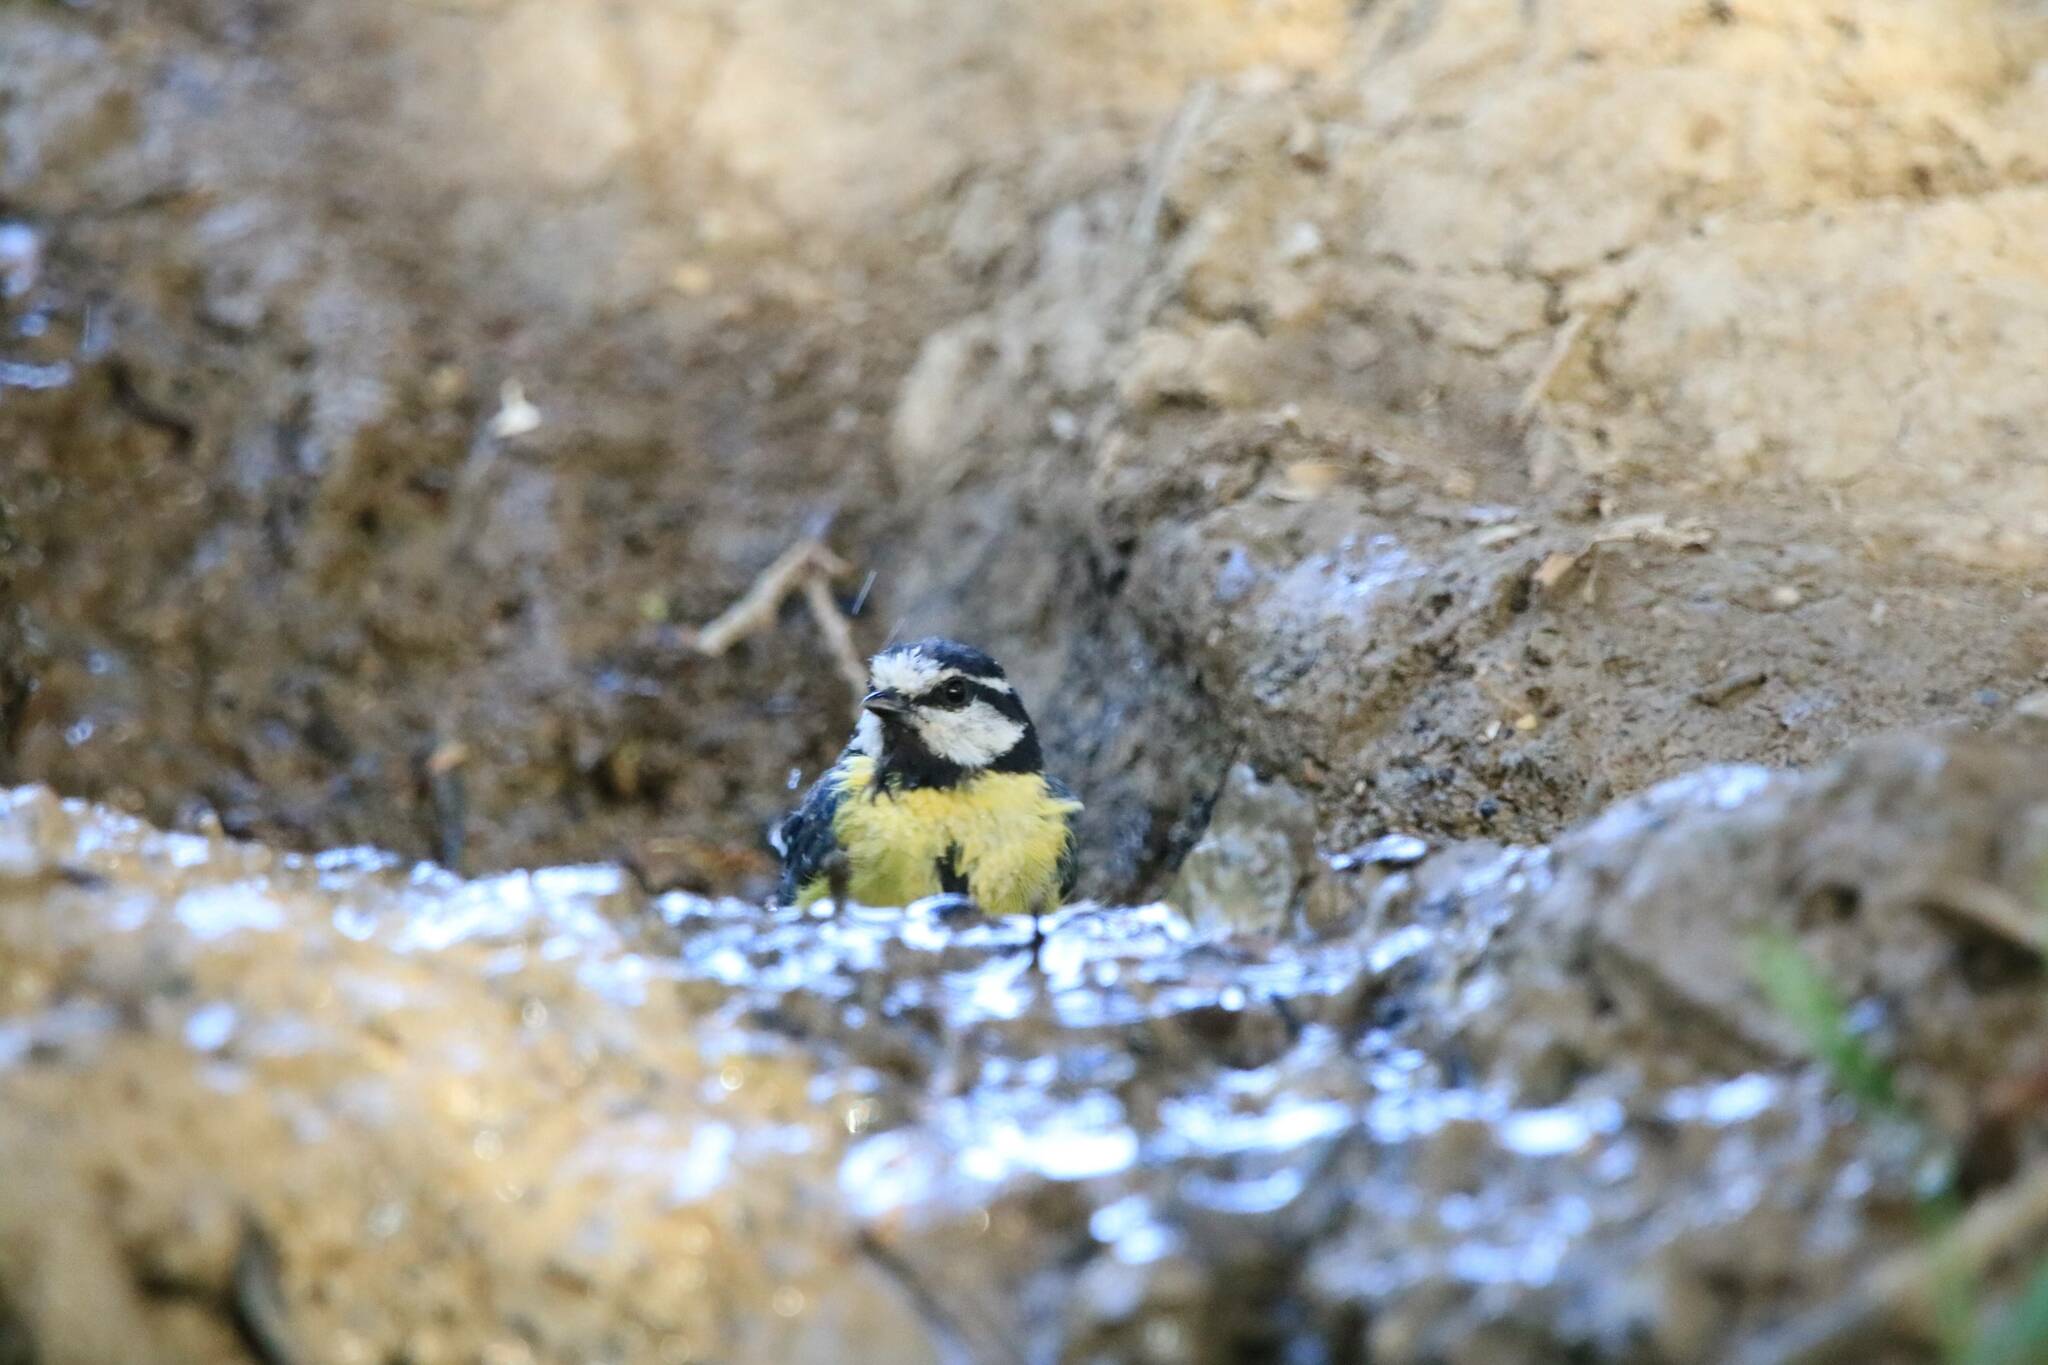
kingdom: Animalia
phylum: Chordata
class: Aves
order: Passeriformes
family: Paridae
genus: Cyanistes
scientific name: Cyanistes teneriffae
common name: African blue tit
